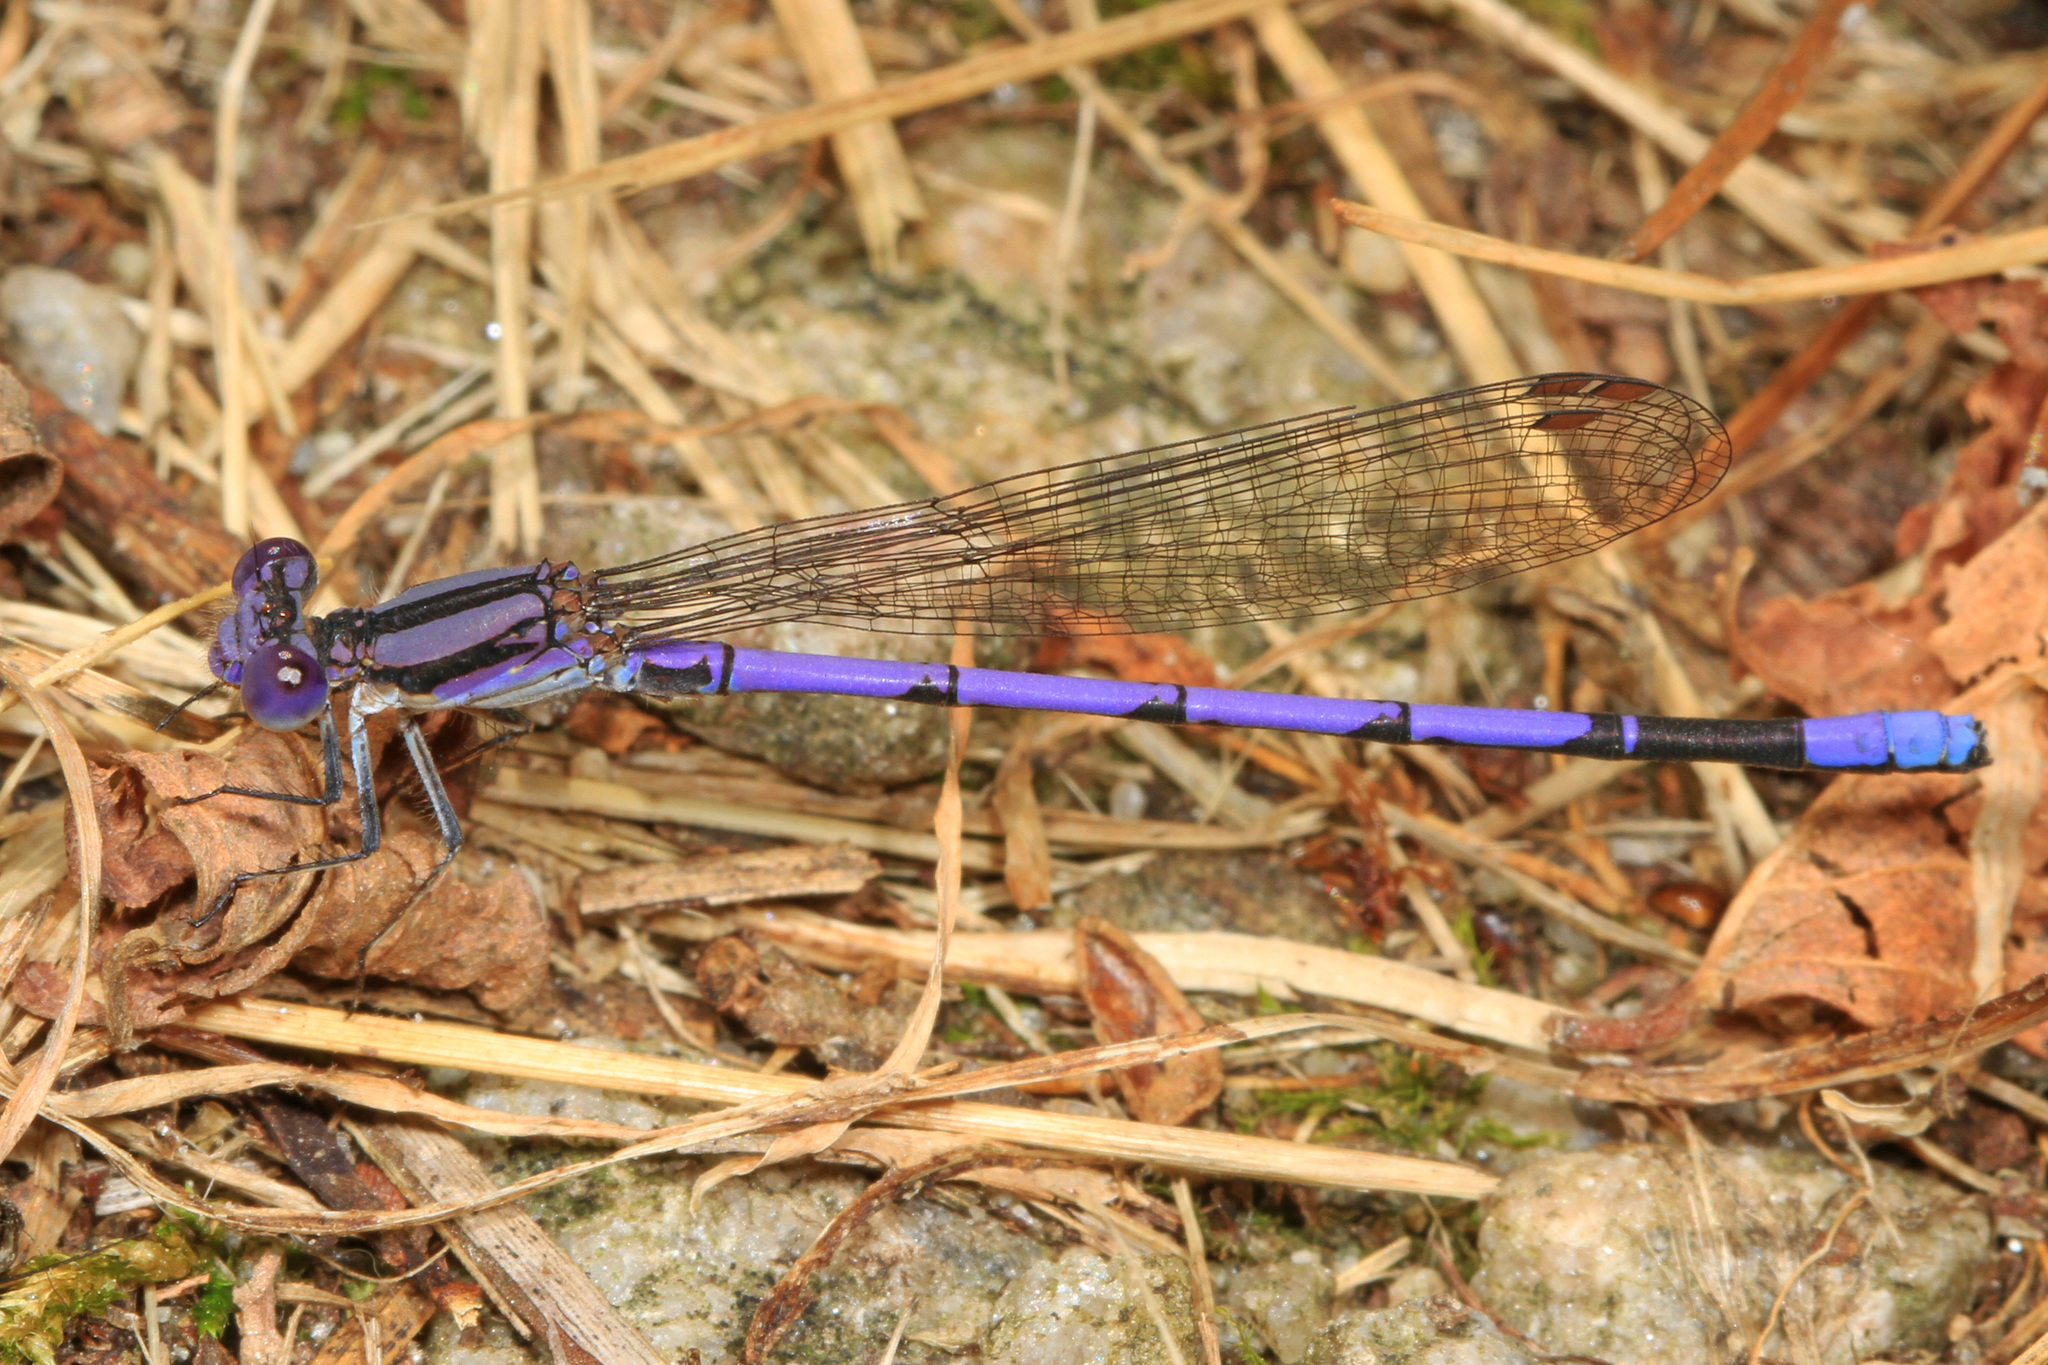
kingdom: Animalia
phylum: Arthropoda
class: Insecta
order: Odonata
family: Coenagrionidae
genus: Argia
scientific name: Argia fumipennis
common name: Variable dancer
